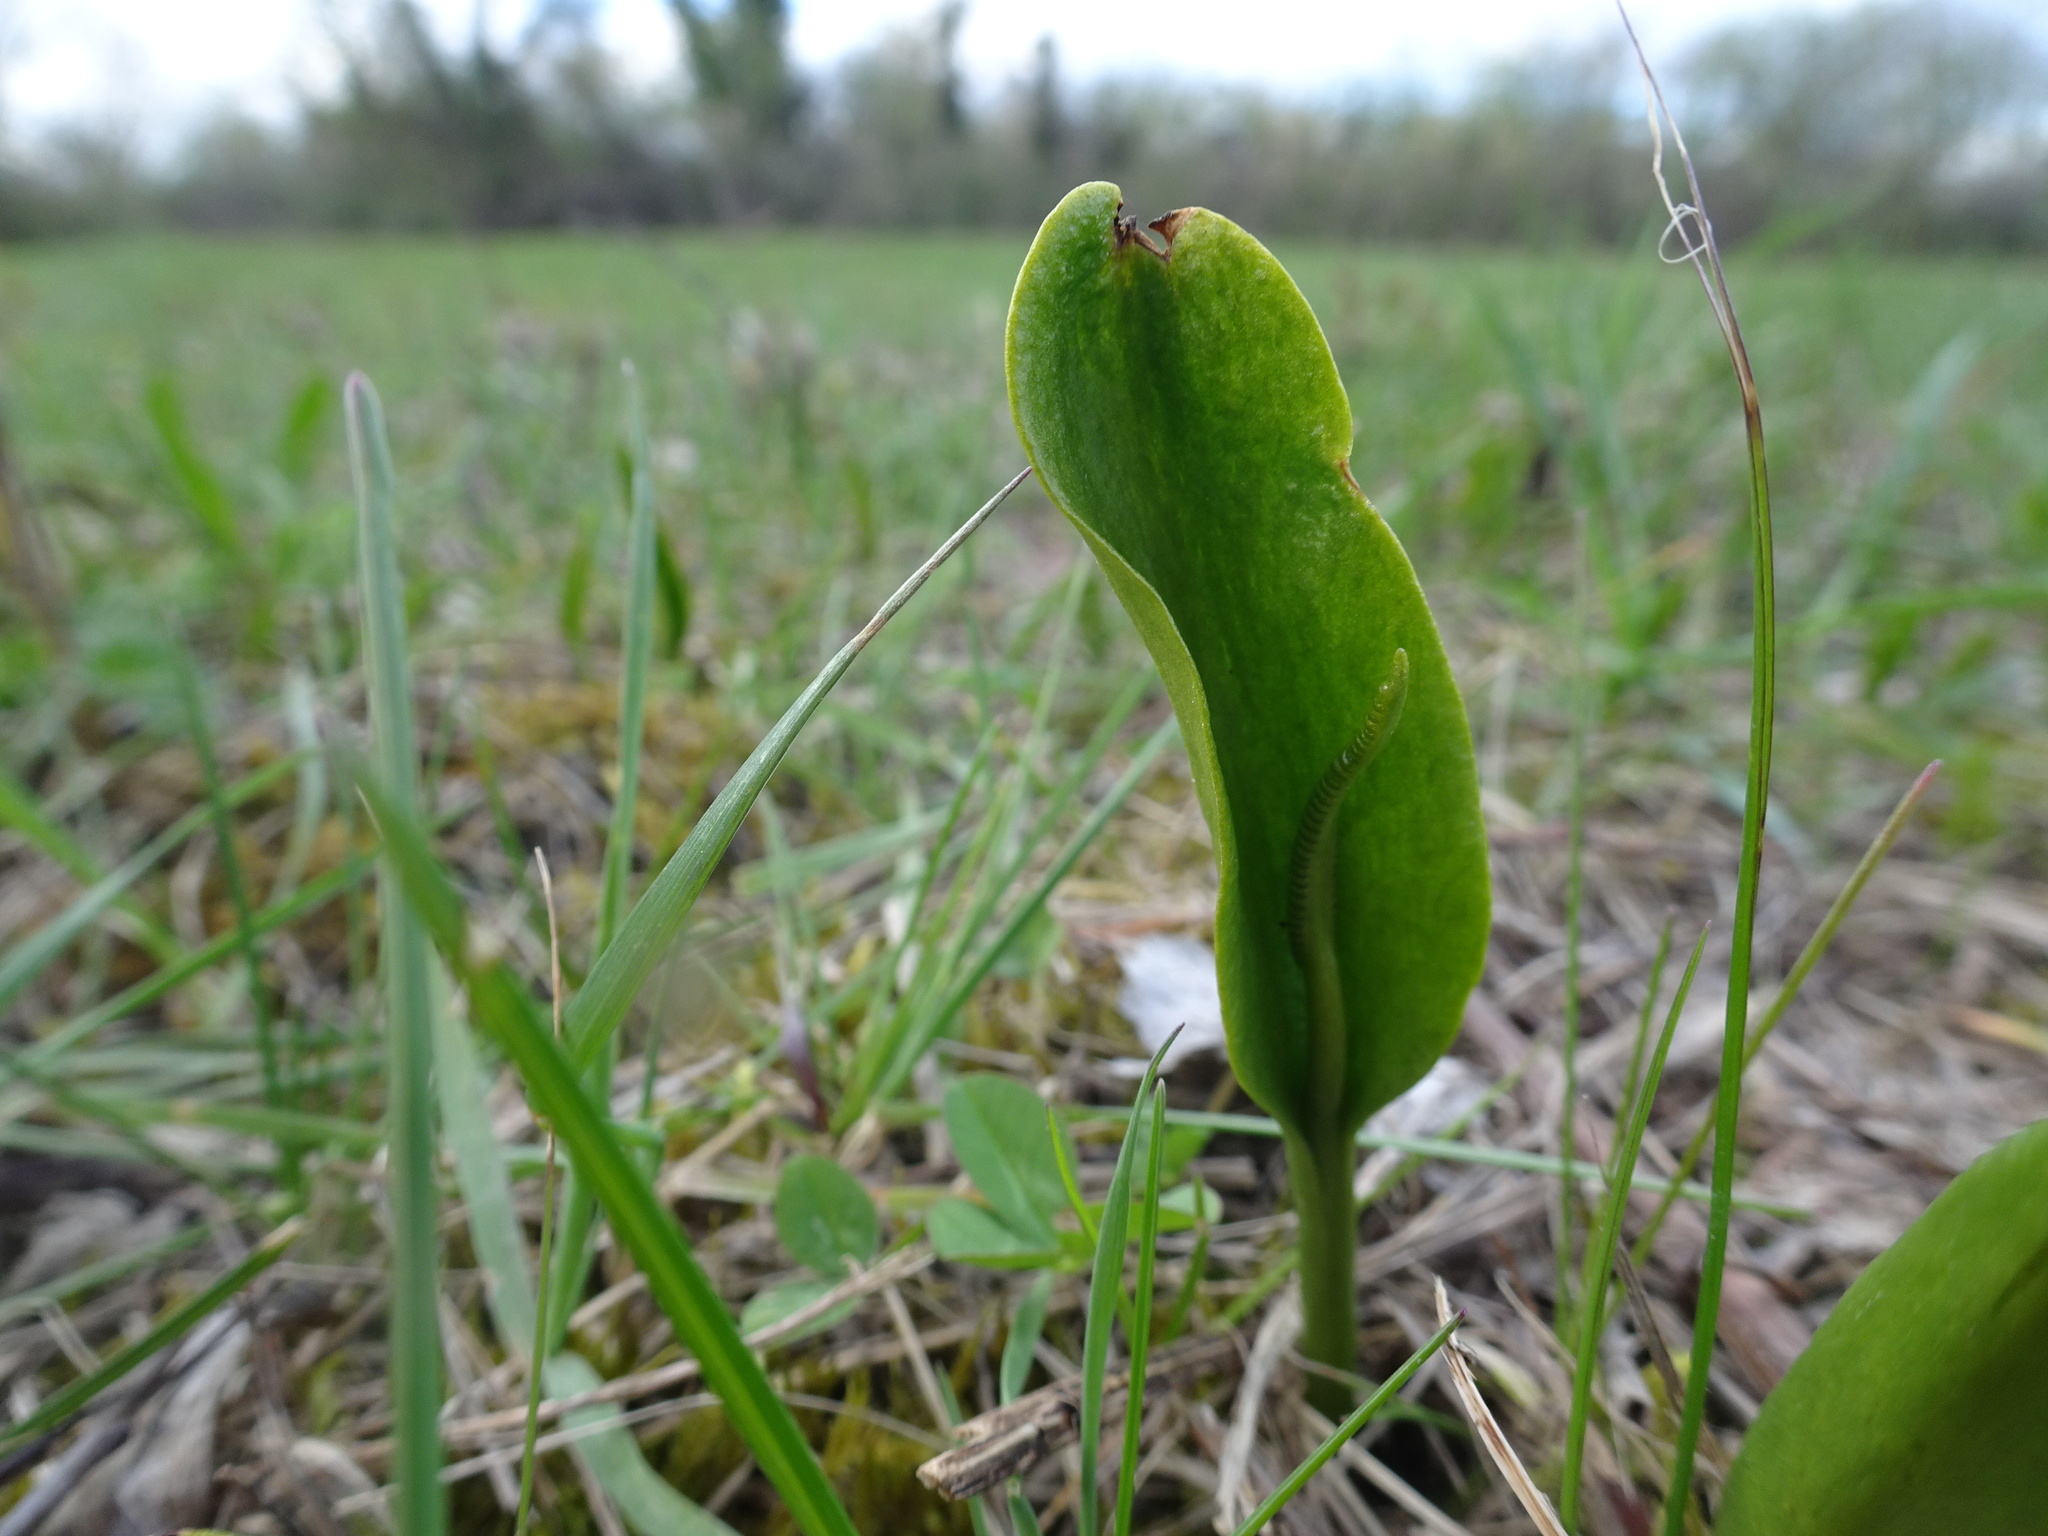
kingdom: Plantae
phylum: Tracheophyta
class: Polypodiopsida
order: Ophioglossales
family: Ophioglossaceae
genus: Ophioglossum
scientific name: Ophioglossum vulgatum
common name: Adder's-tongue
